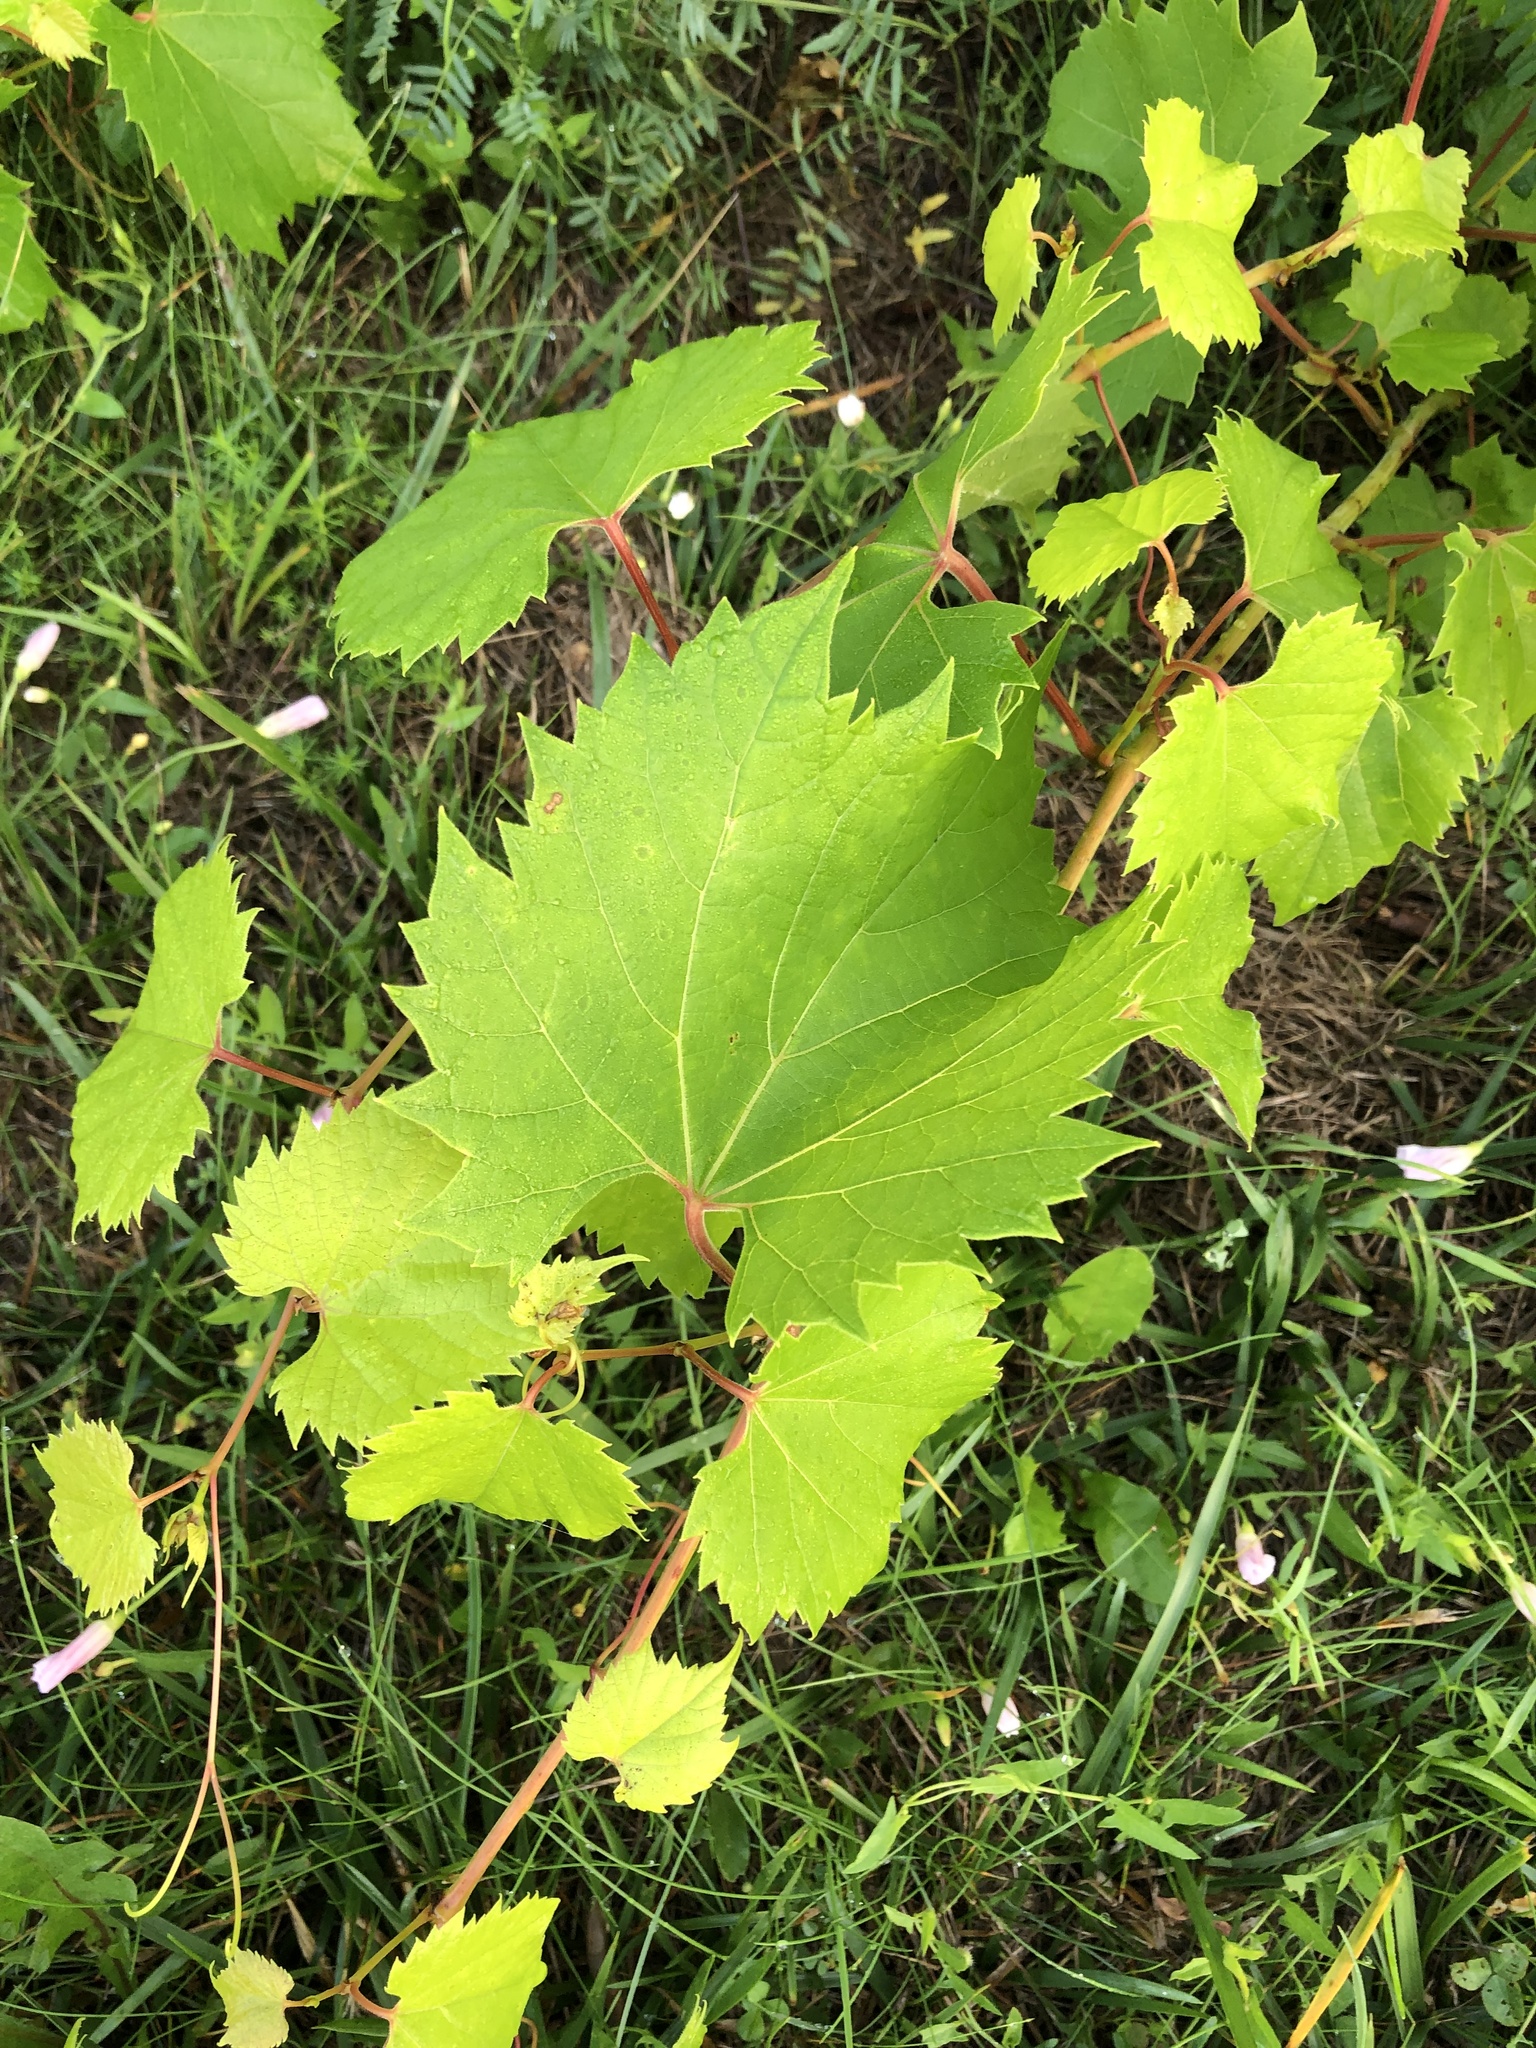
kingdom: Plantae
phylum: Tracheophyta
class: Magnoliopsida
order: Vitales
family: Vitaceae
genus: Vitis
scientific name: Vitis riparia
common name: Frost grape
